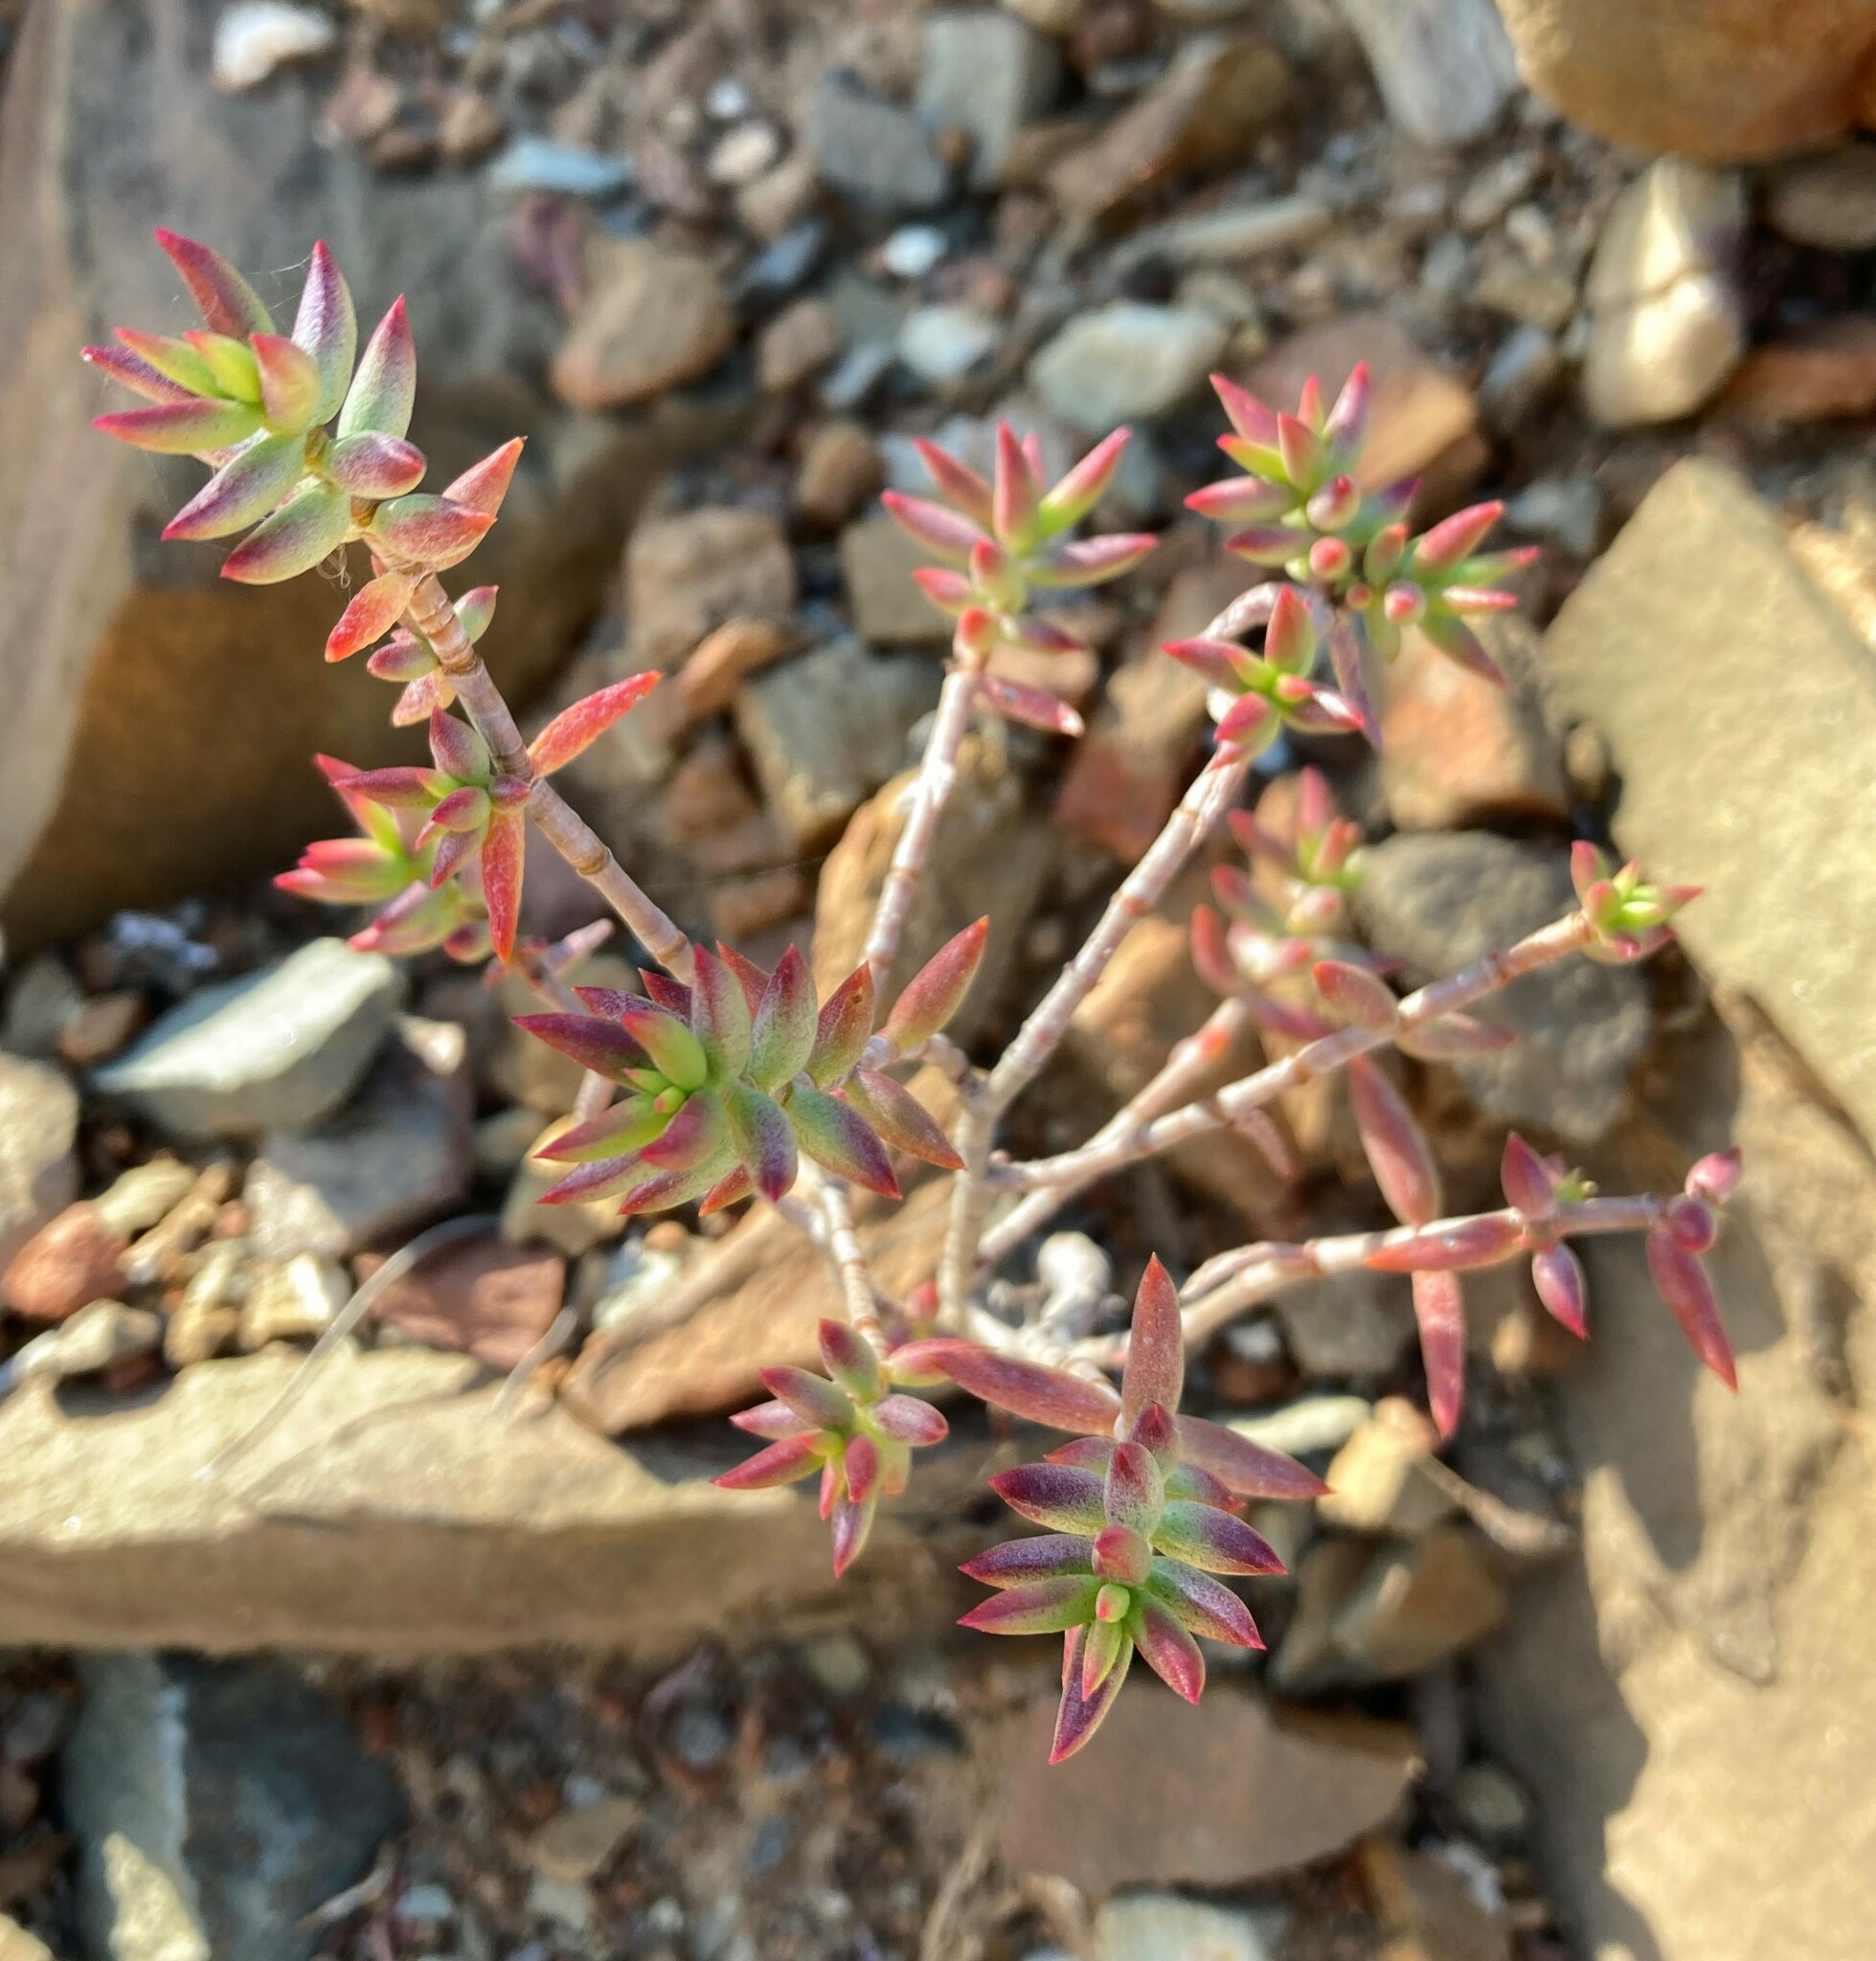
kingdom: Plantae
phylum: Tracheophyta
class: Magnoliopsida
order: Saxifragales
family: Crassulaceae
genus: Crassula
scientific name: Crassula tetragona
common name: Pygmyweed
